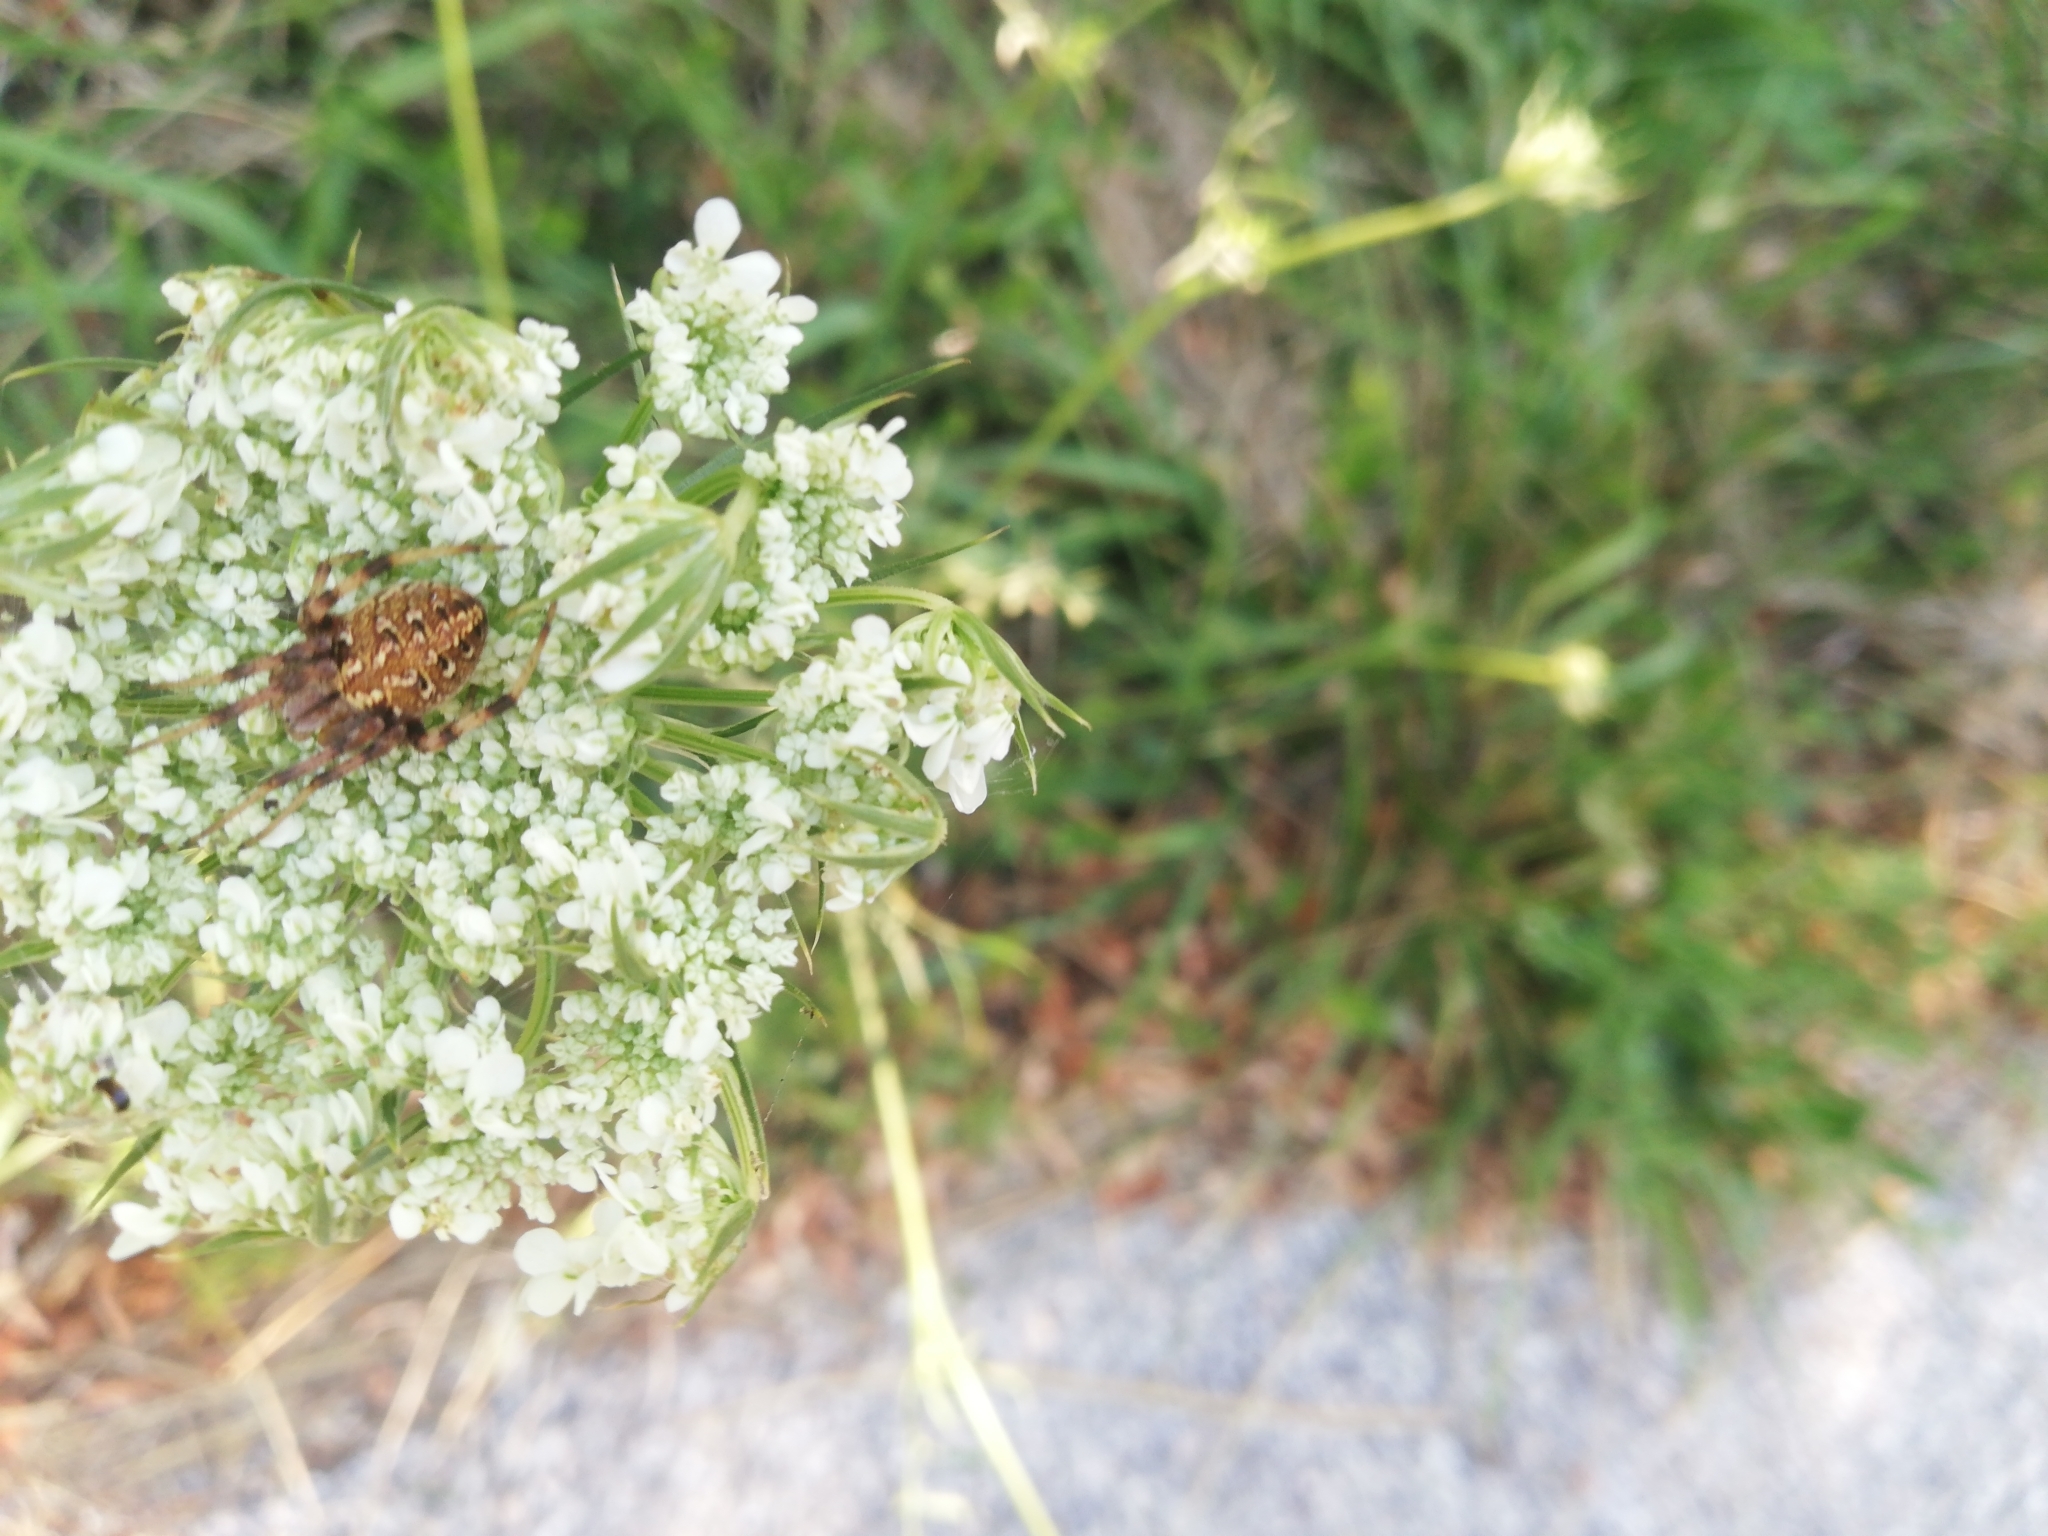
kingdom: Animalia
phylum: Arthropoda
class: Arachnida
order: Araneae
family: Araneidae
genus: Neoscona
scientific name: Neoscona byzanthina
